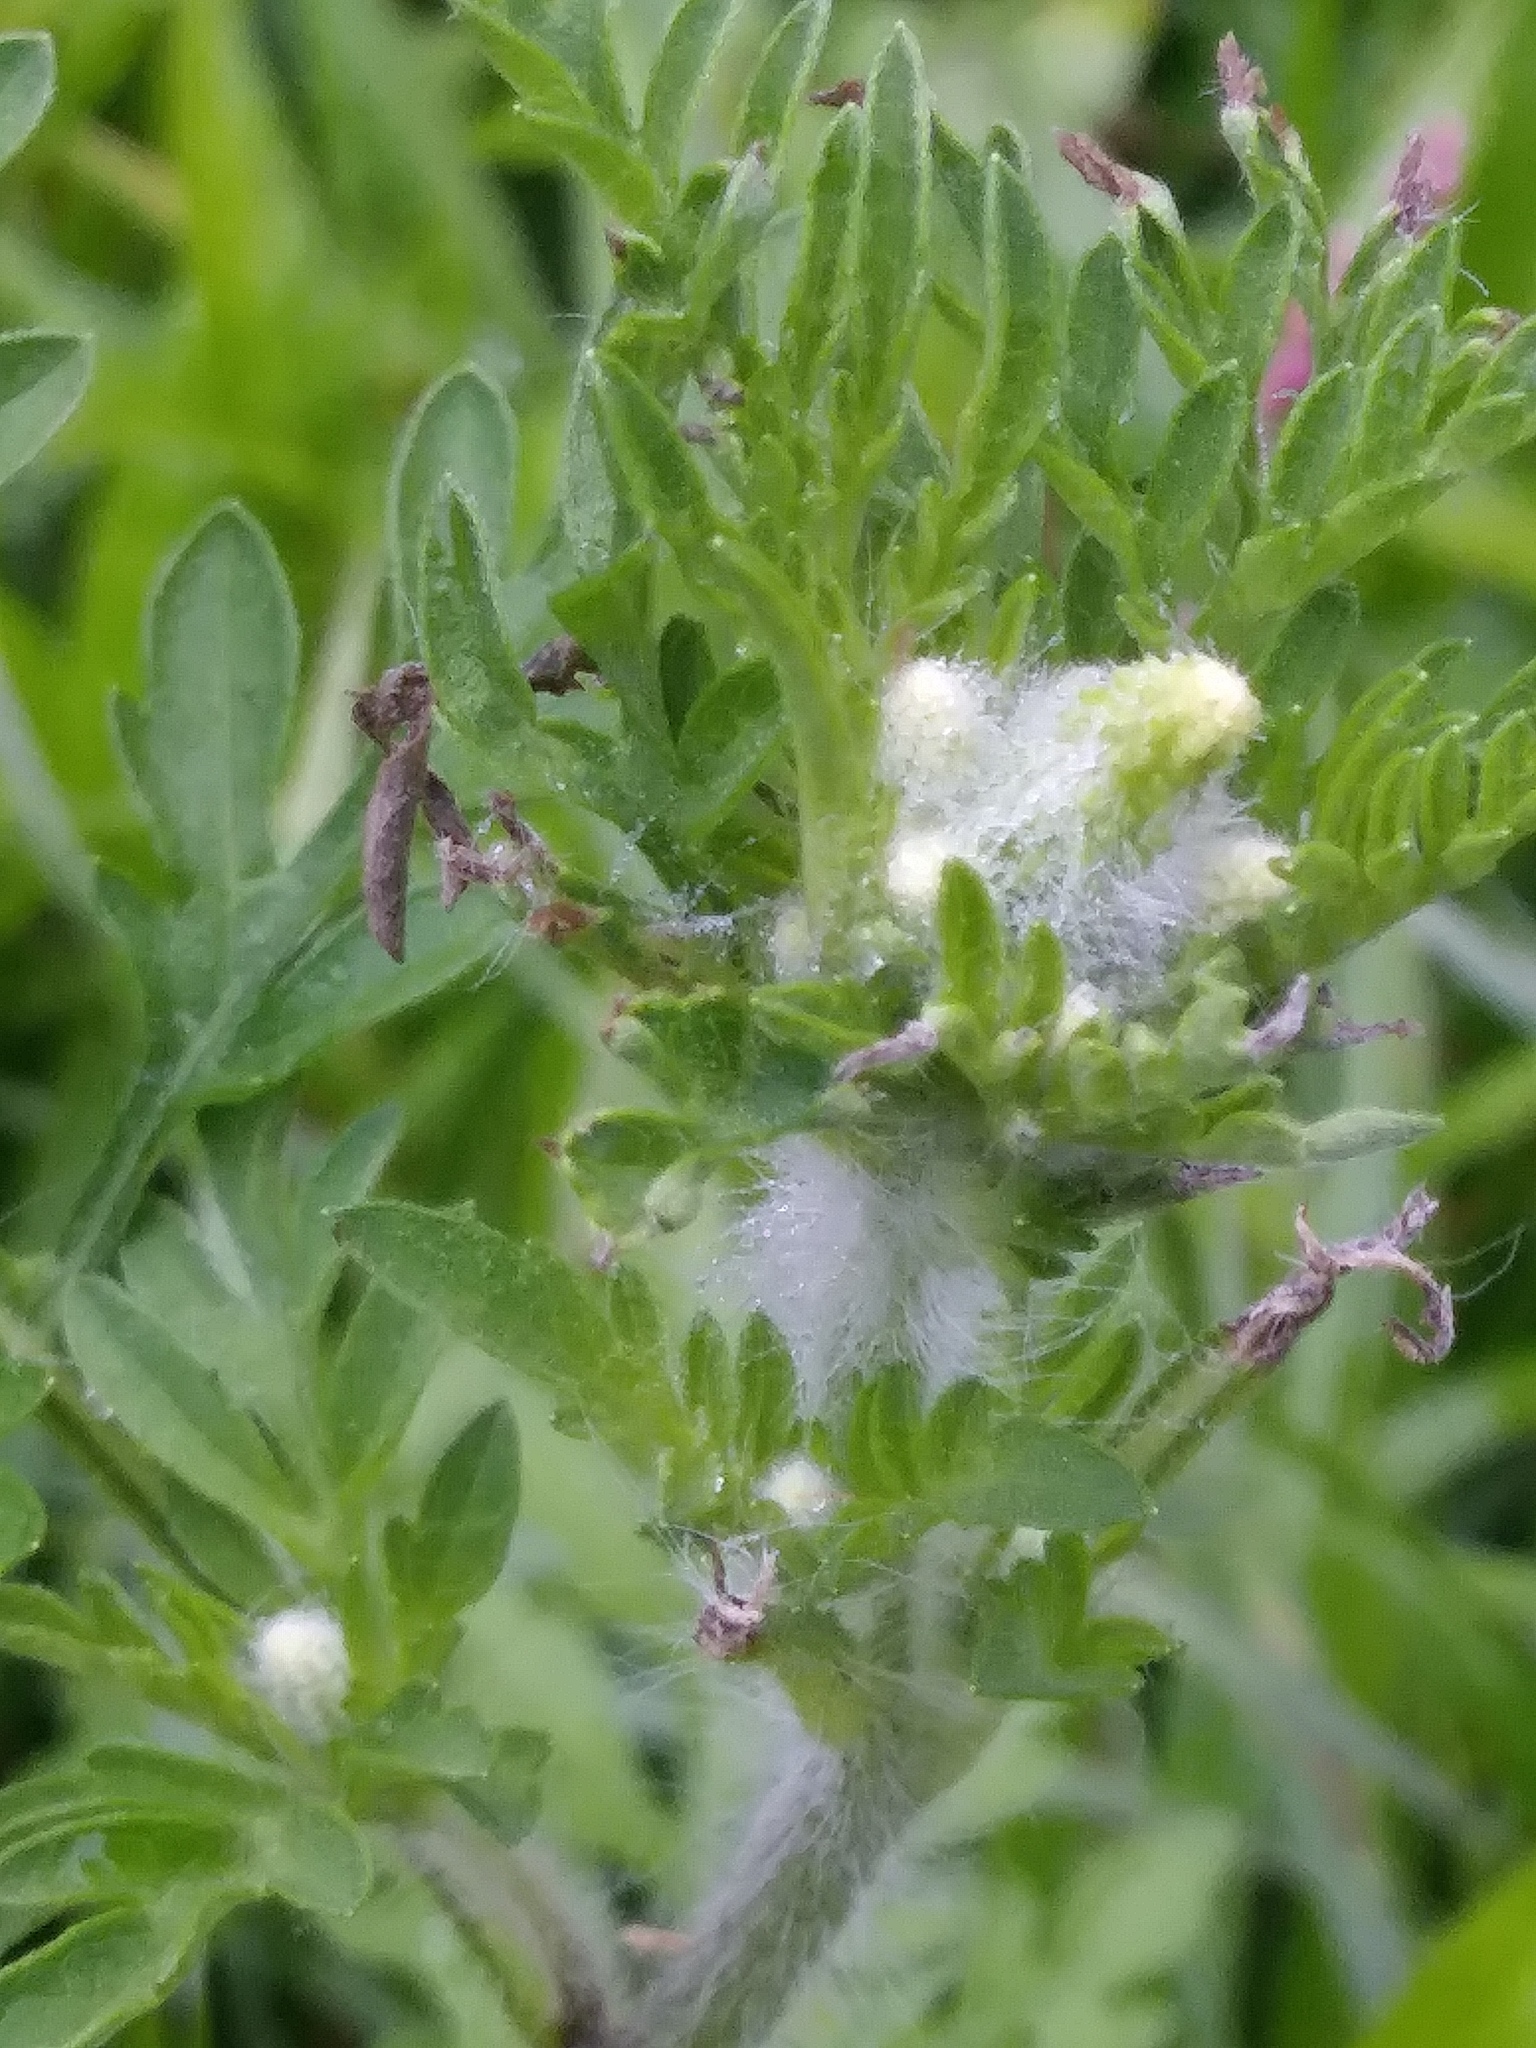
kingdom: Plantae
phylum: Tracheophyta
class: Magnoliopsida
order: Asterales
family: Asteraceae
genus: Ambrosia
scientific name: Ambrosia artemisiifolia
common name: Annual ragweed
